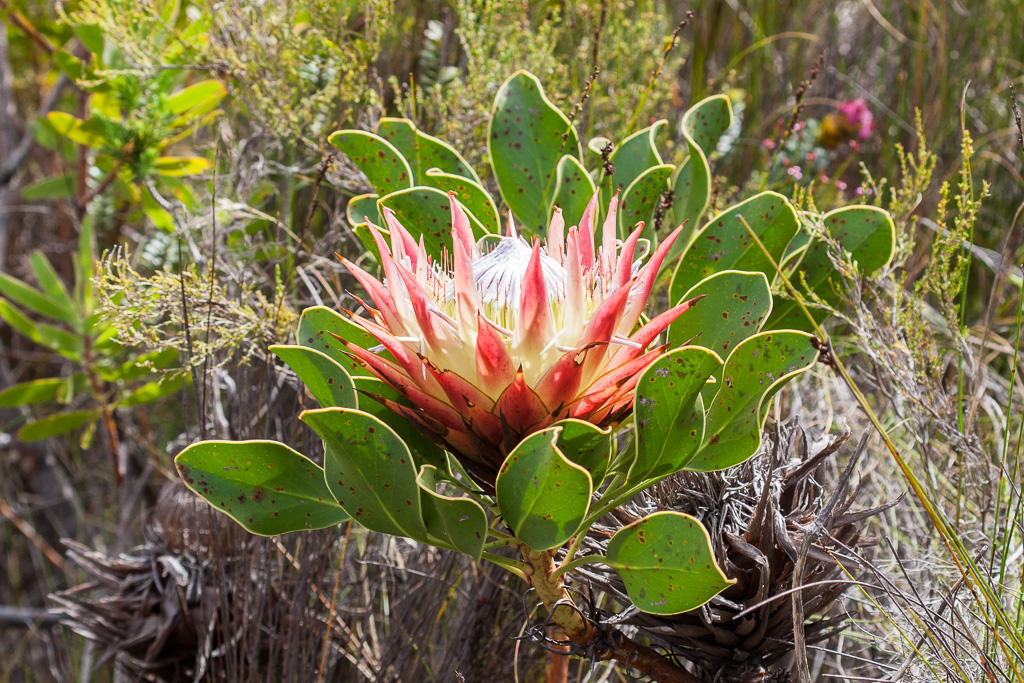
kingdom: Plantae
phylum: Tracheophyta
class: Magnoliopsida
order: Proteales
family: Proteaceae
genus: Protea
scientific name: Protea cynaroides
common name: King protea
